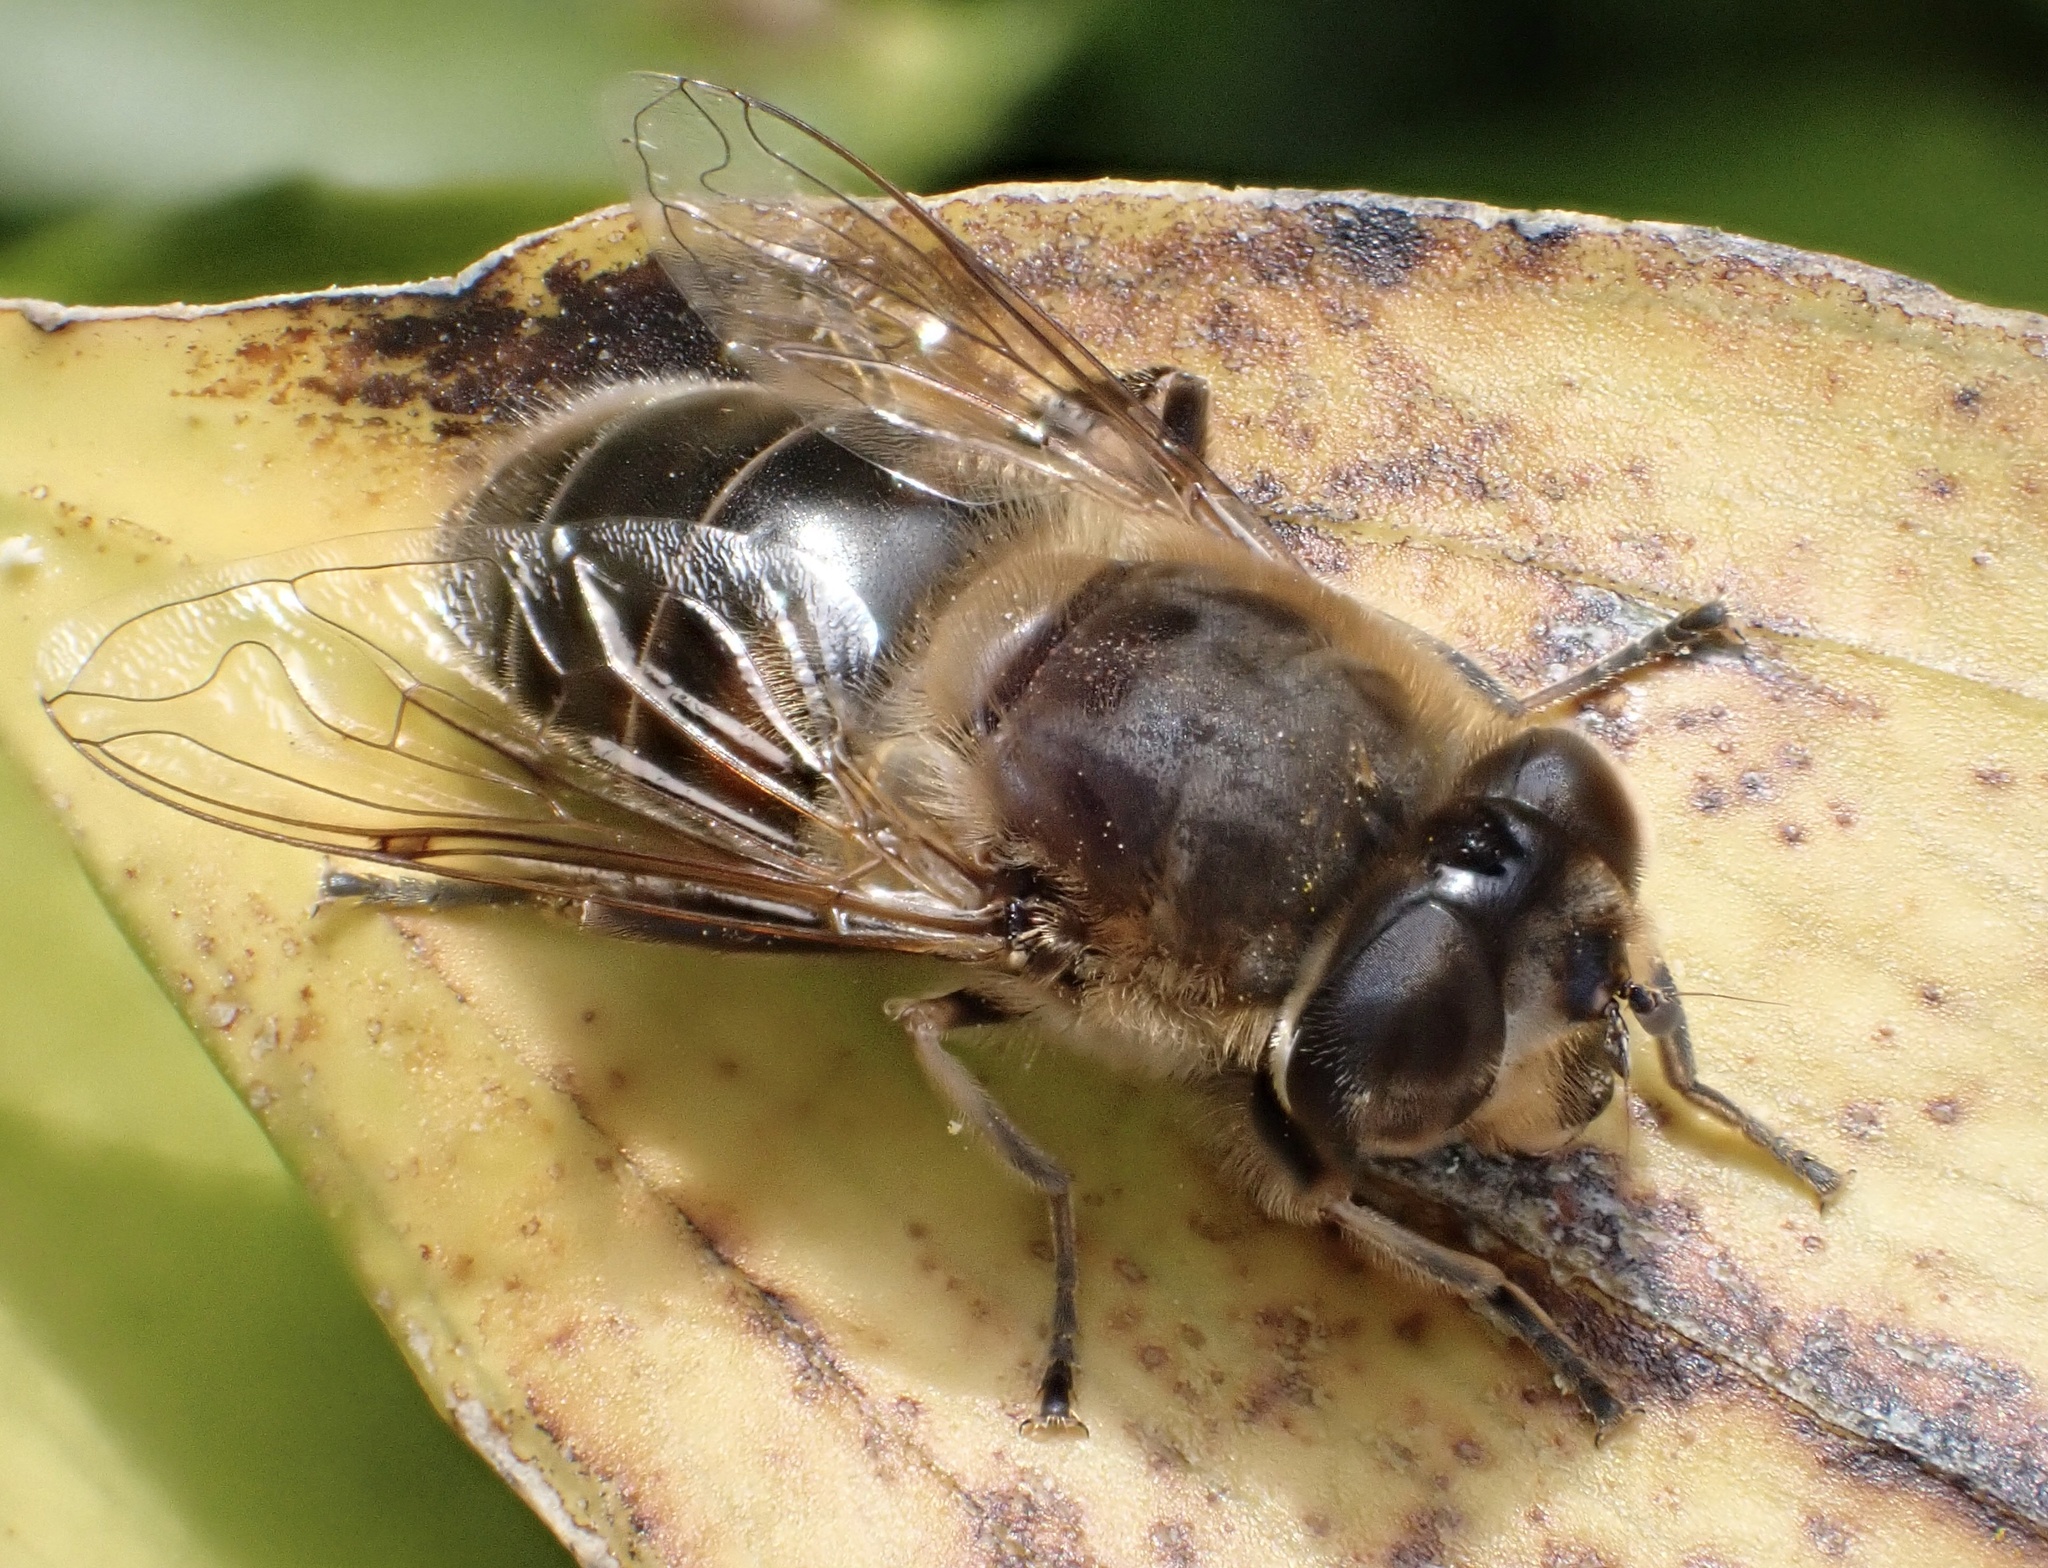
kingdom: Animalia
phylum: Arthropoda
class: Insecta
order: Diptera
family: Syrphidae
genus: Eristalis
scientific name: Eristalis tenax
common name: Drone fly
